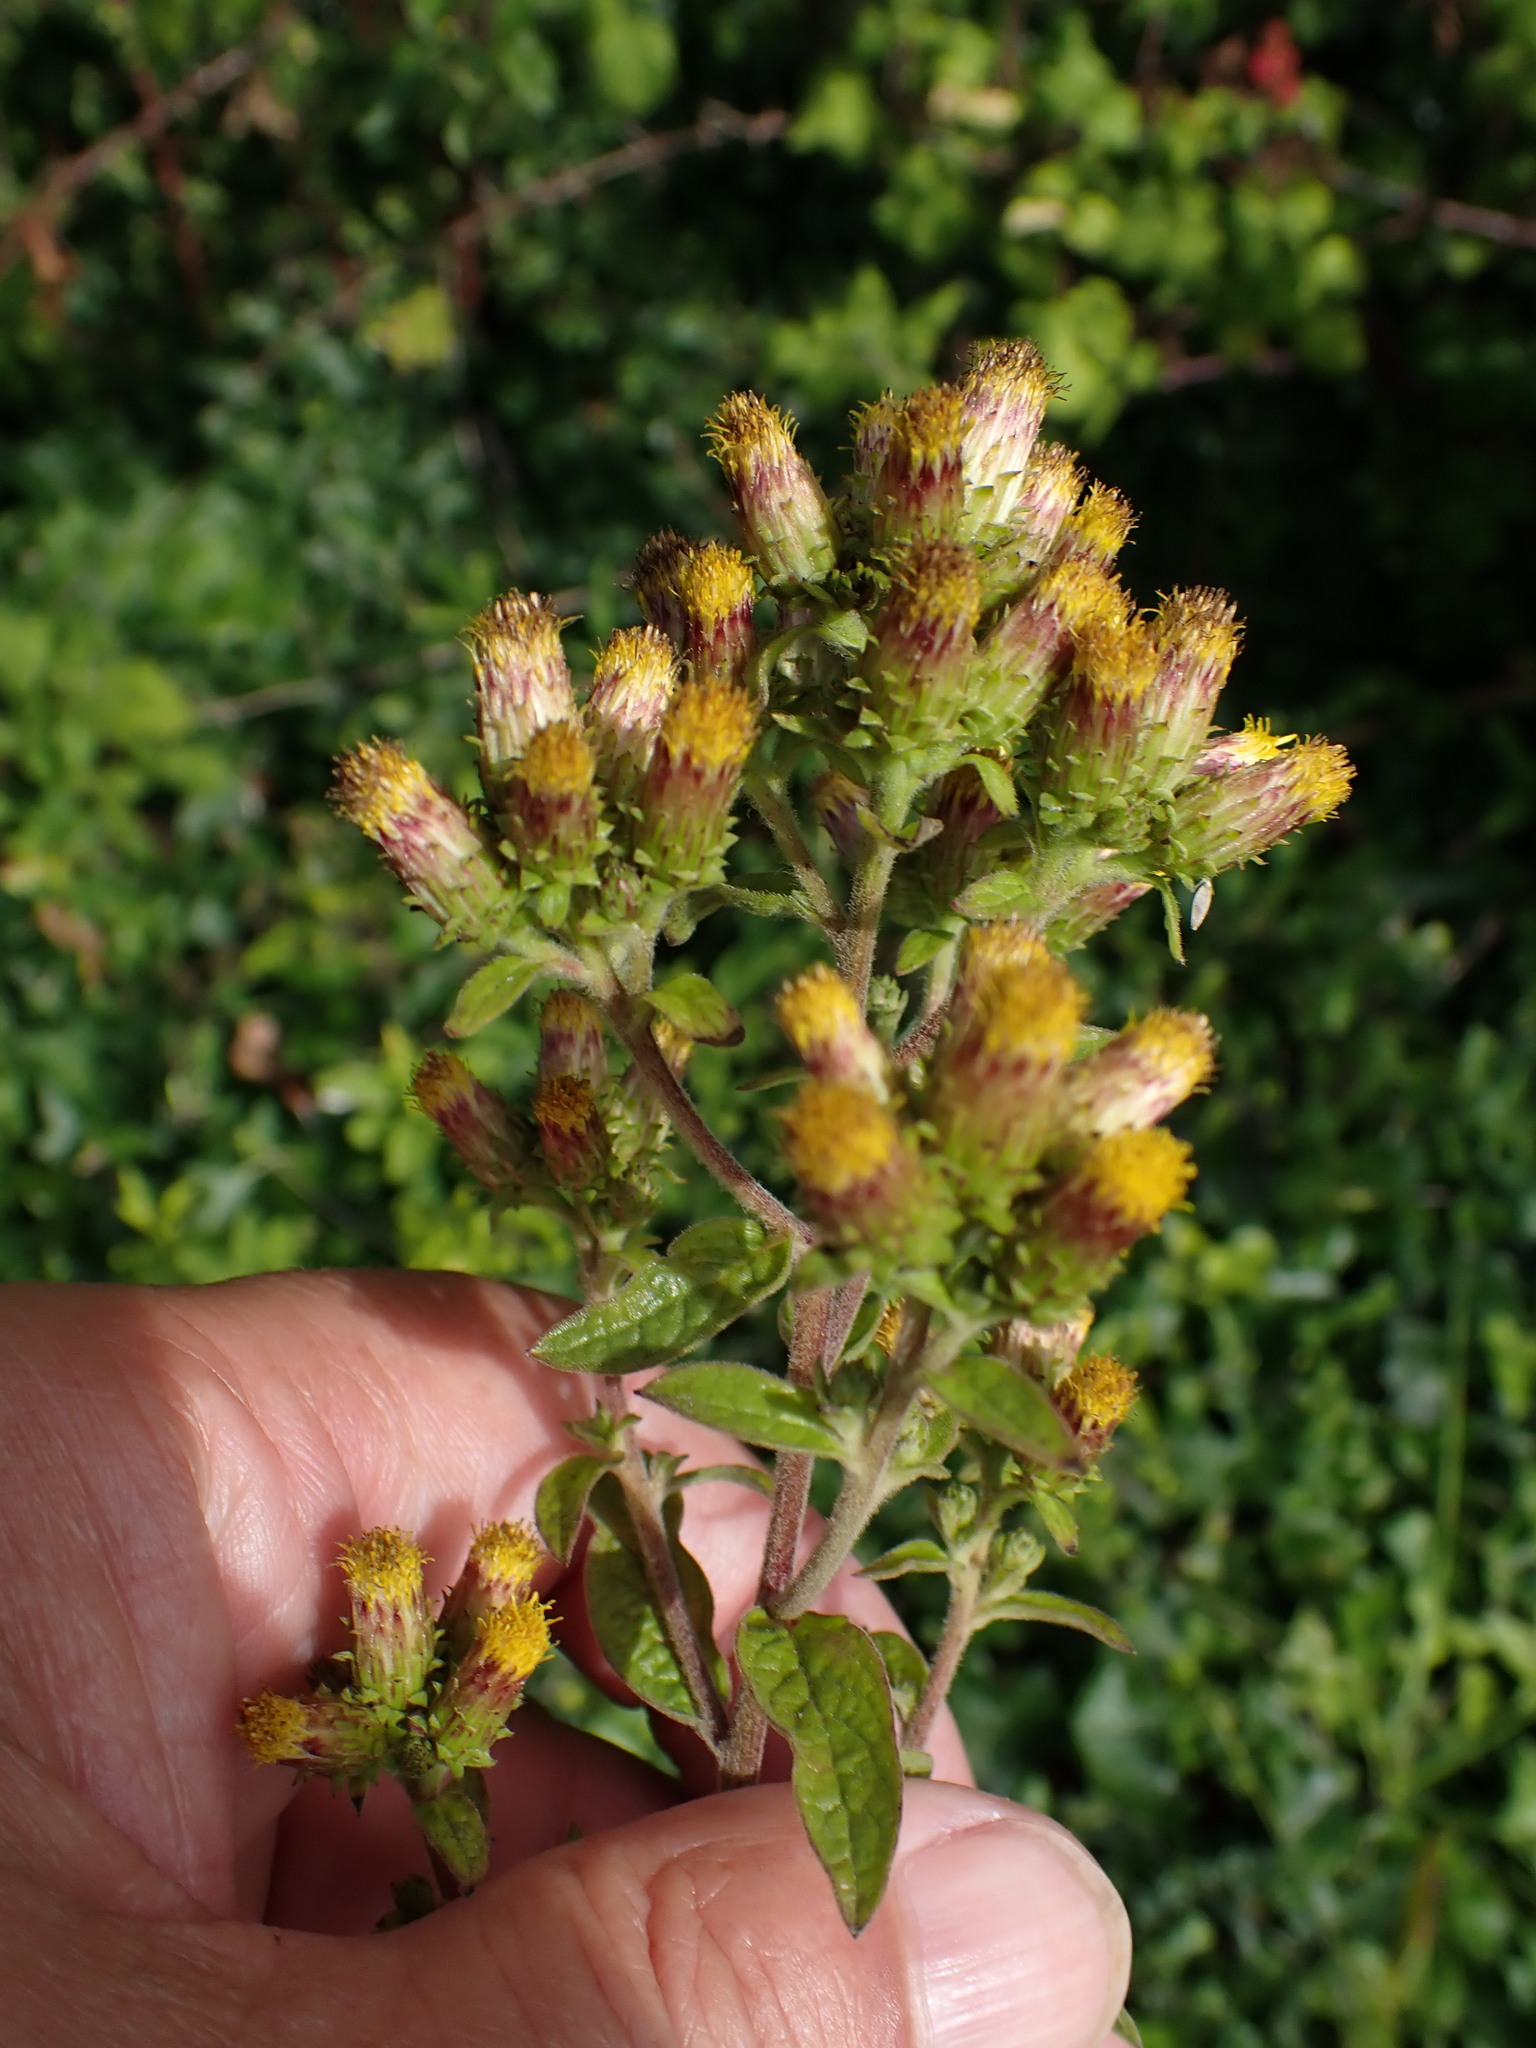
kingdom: Plantae
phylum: Tracheophyta
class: Magnoliopsida
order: Asterales
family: Asteraceae
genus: Pentanema
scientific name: Pentanema squarrosum
